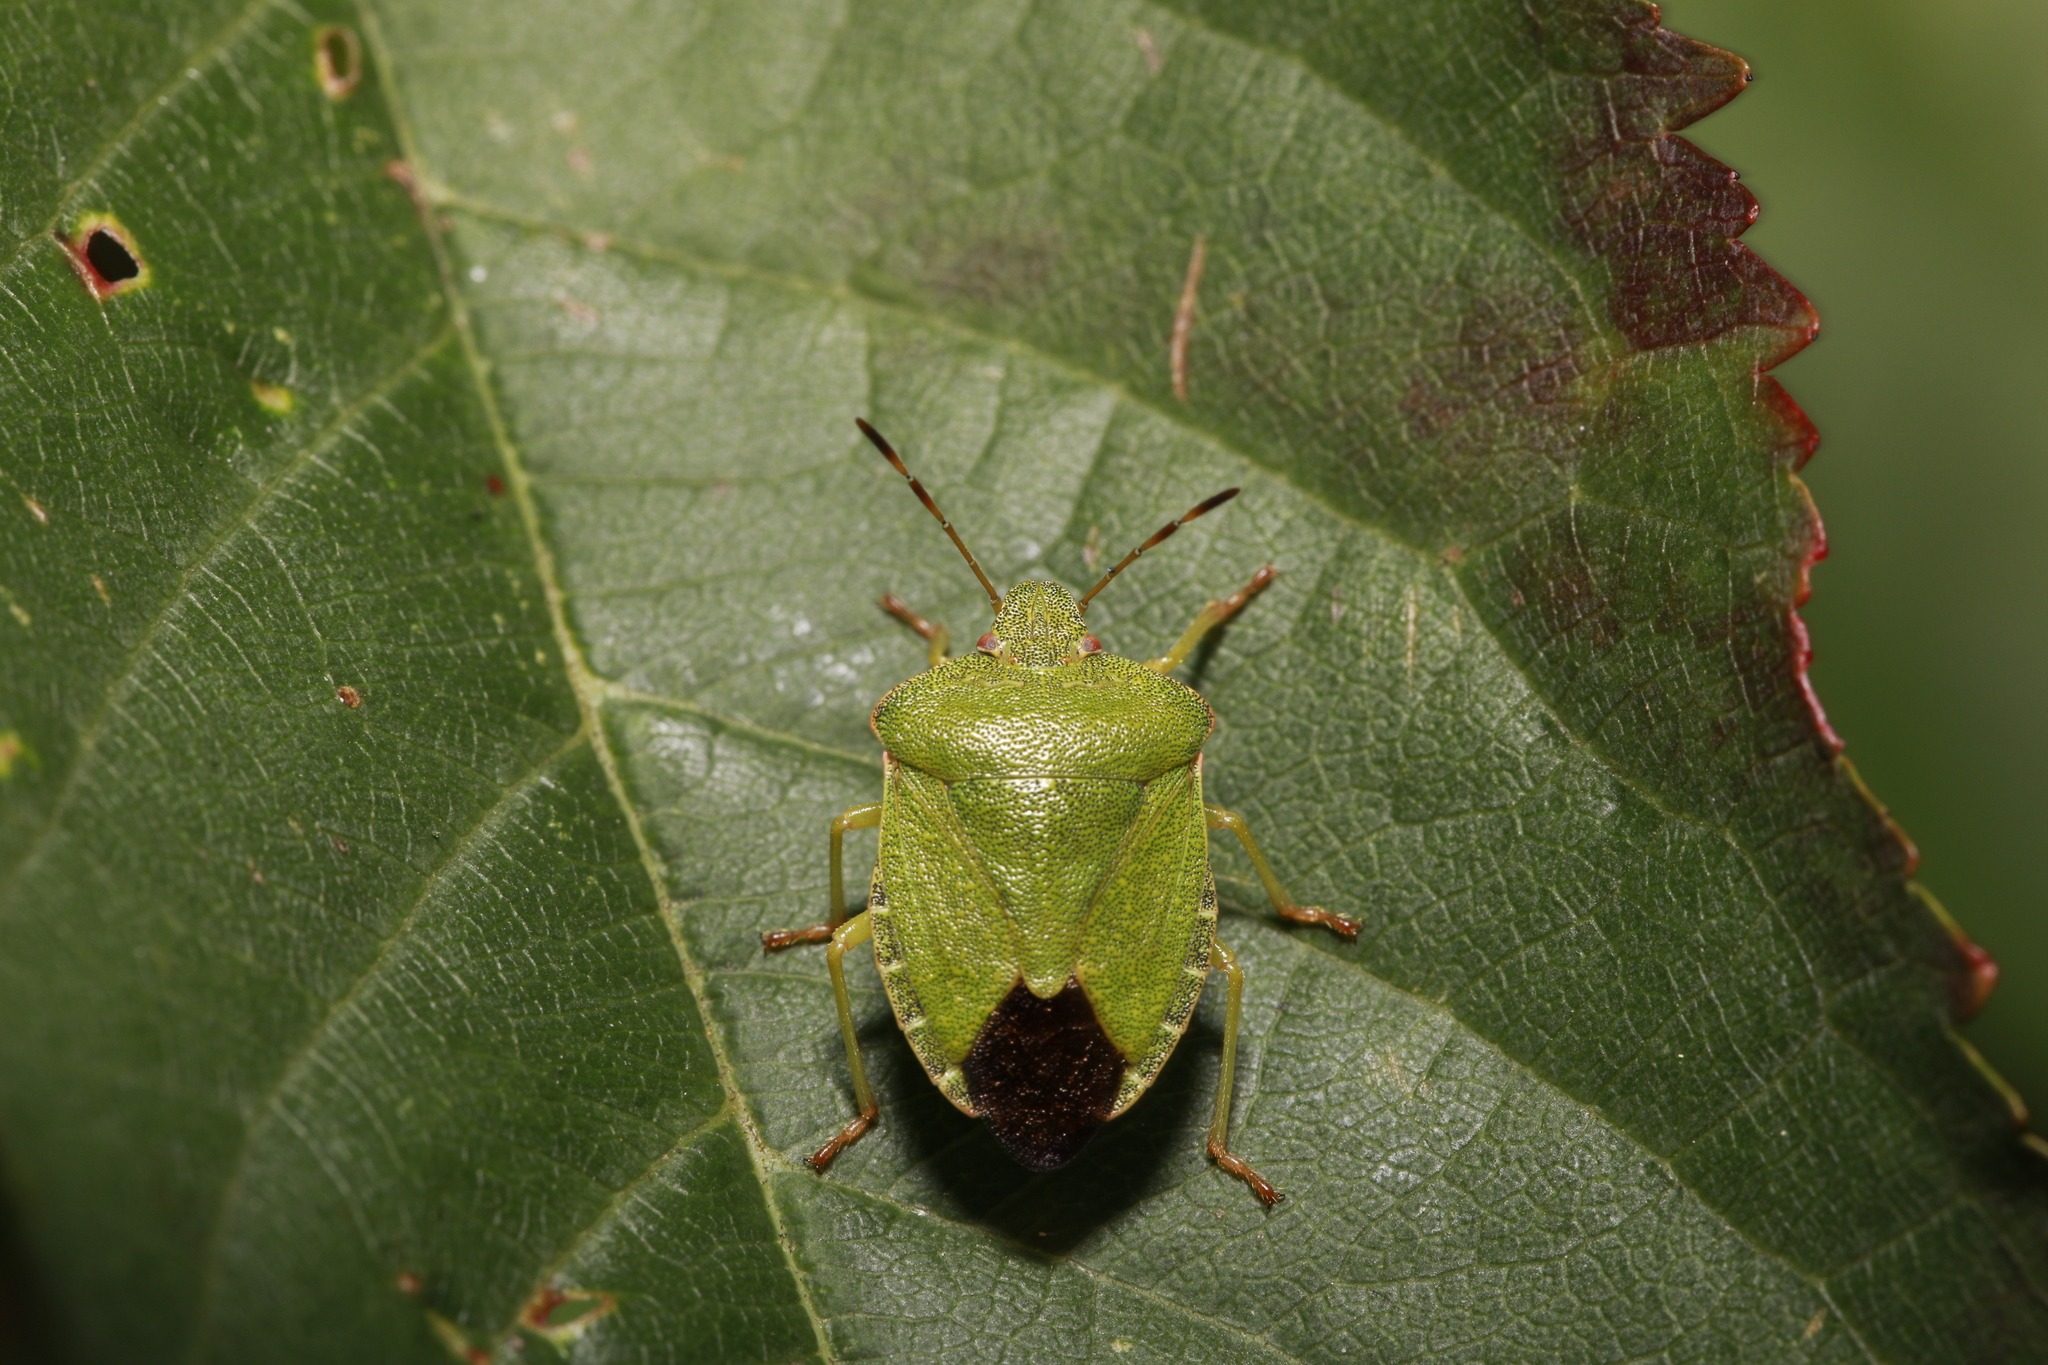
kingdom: Animalia
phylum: Arthropoda
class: Insecta
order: Hemiptera
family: Pentatomidae
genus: Palomena
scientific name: Palomena prasina
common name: Green shieldbug
